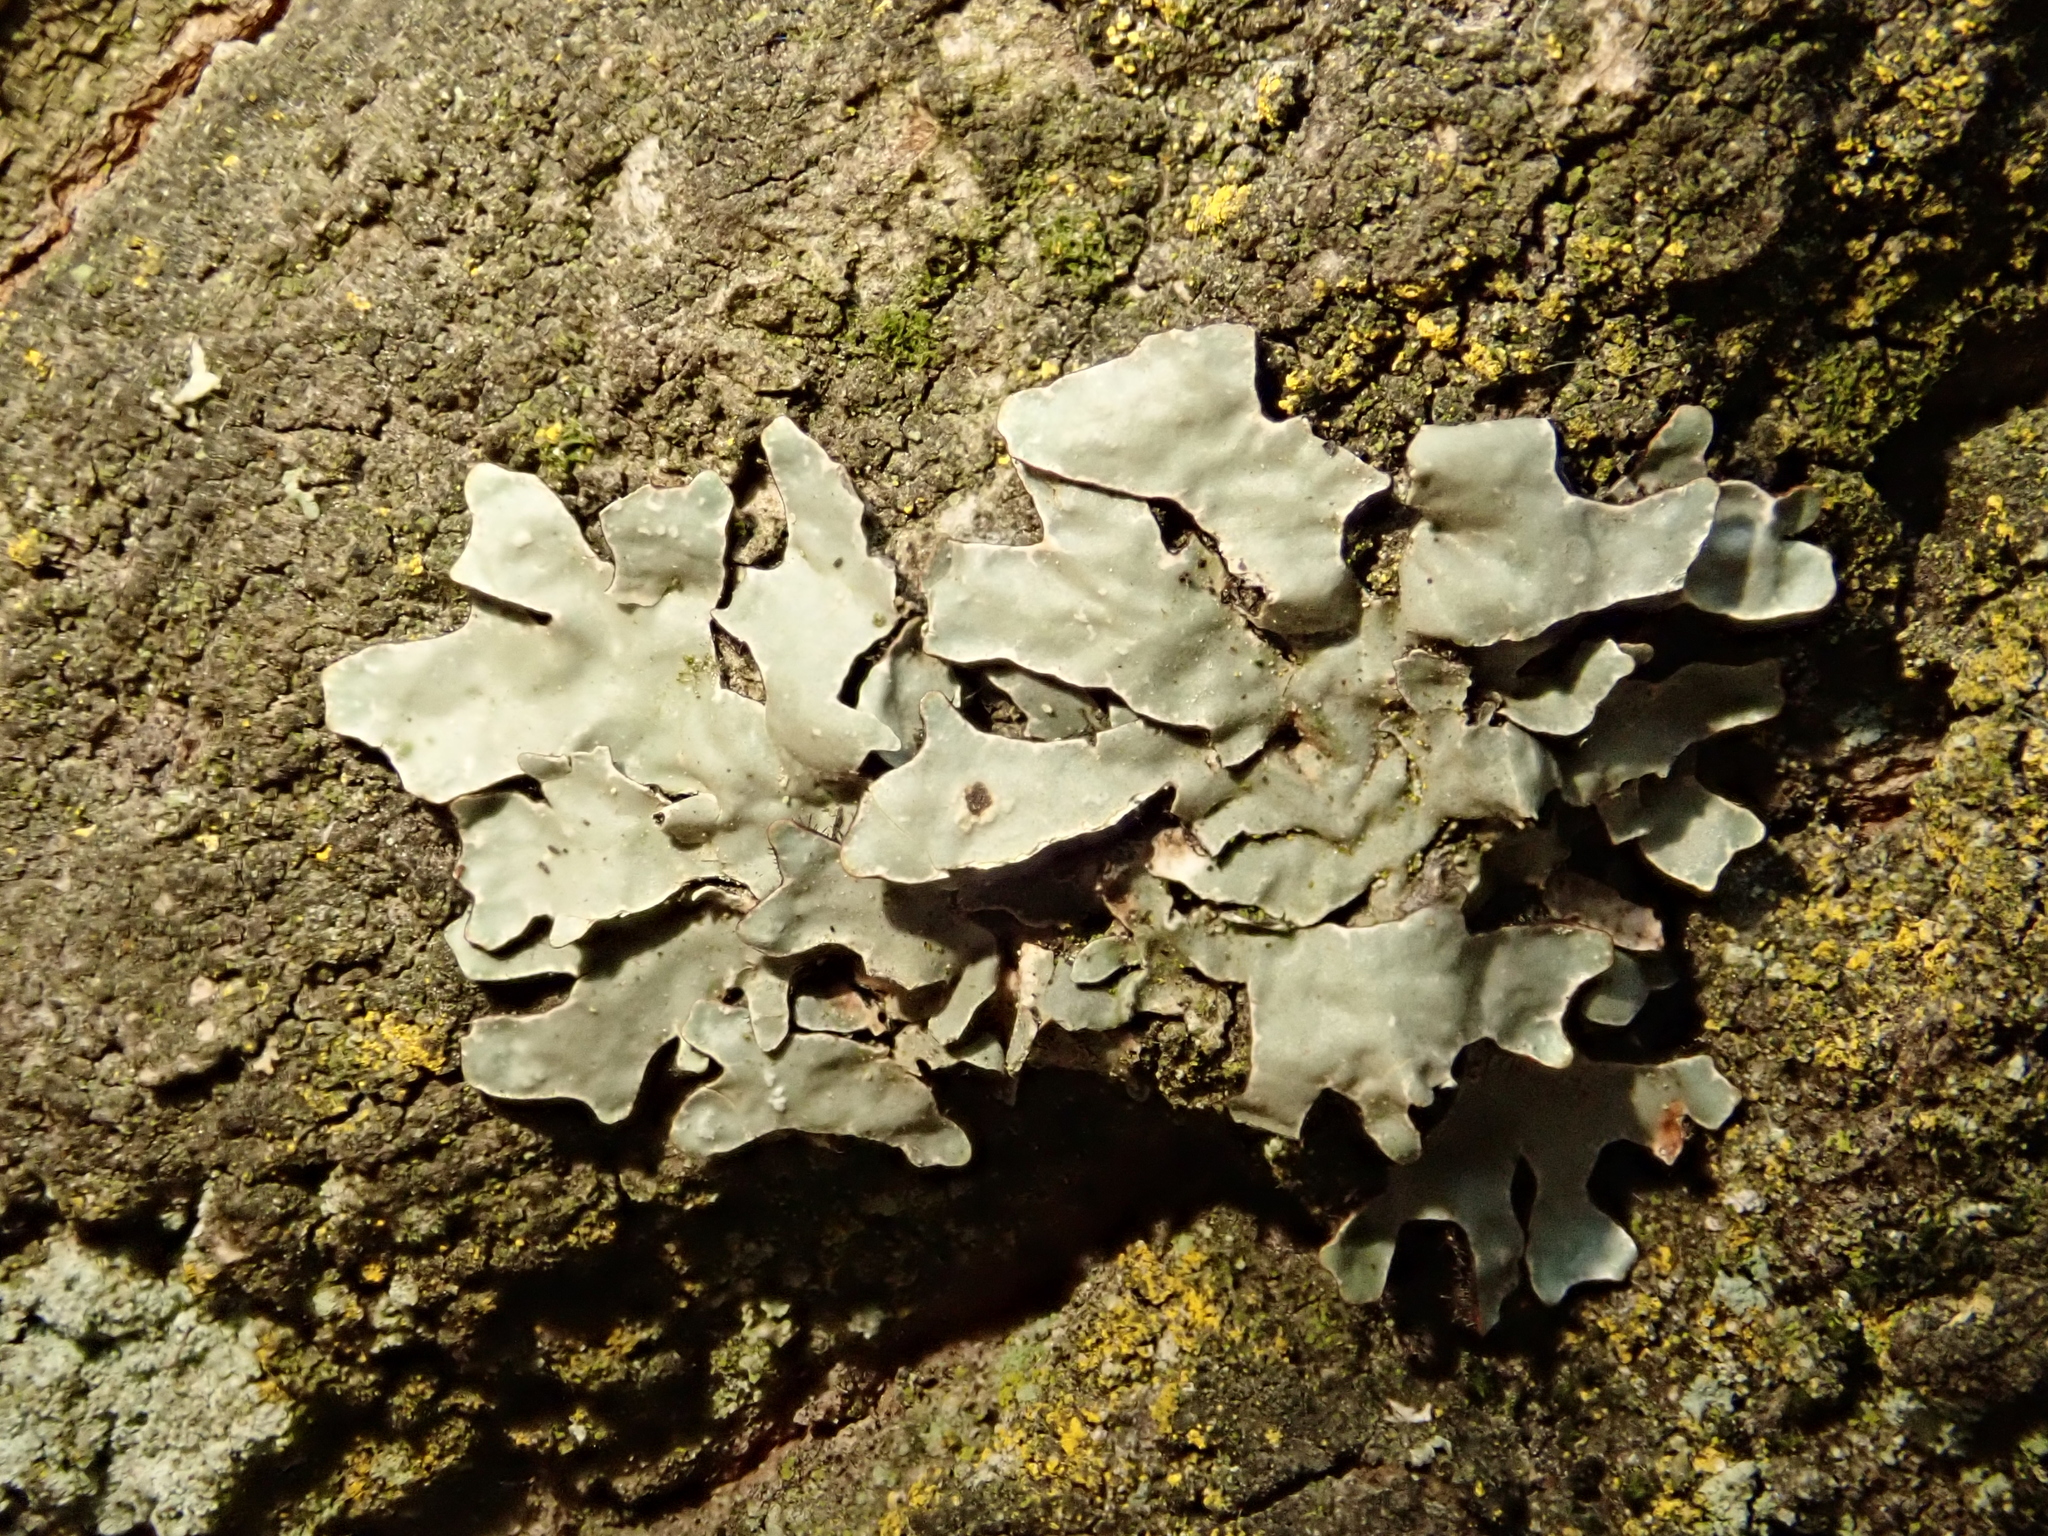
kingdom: Fungi
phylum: Ascomycota
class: Lecanoromycetes
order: Lecanorales
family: Parmeliaceae
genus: Parmelia
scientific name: Parmelia sulcata
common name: Netted shield lichen
